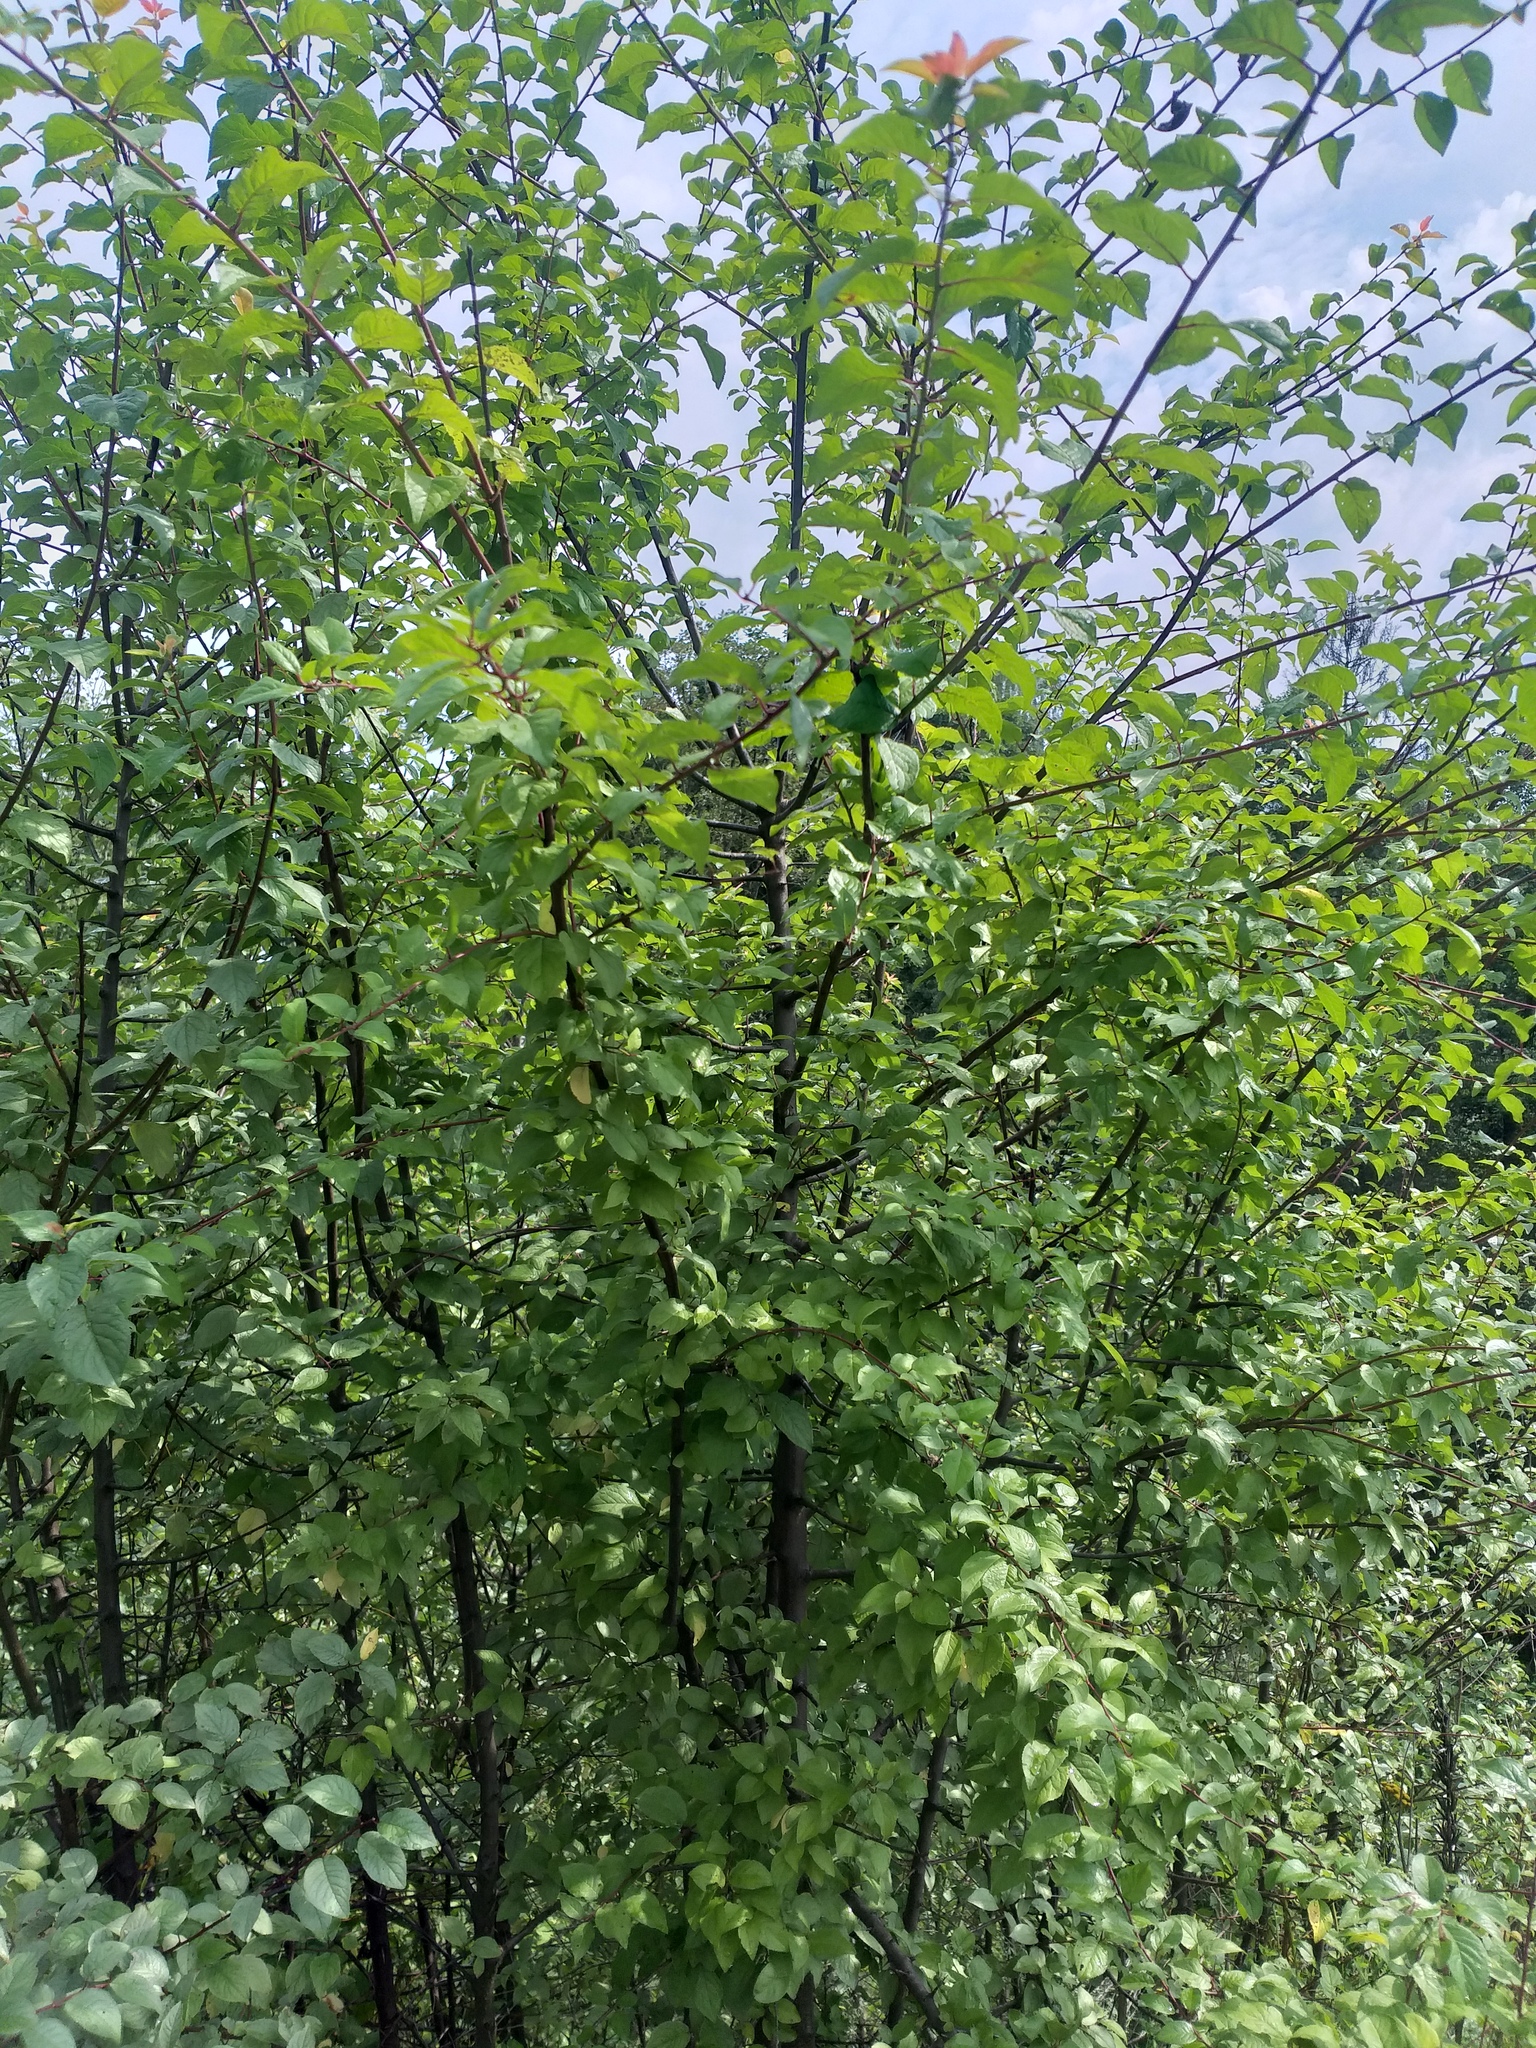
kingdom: Plantae
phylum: Tracheophyta
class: Magnoliopsida
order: Rosales
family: Rosaceae
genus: Prunus
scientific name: Prunus cerasifera
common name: Cherry plum
